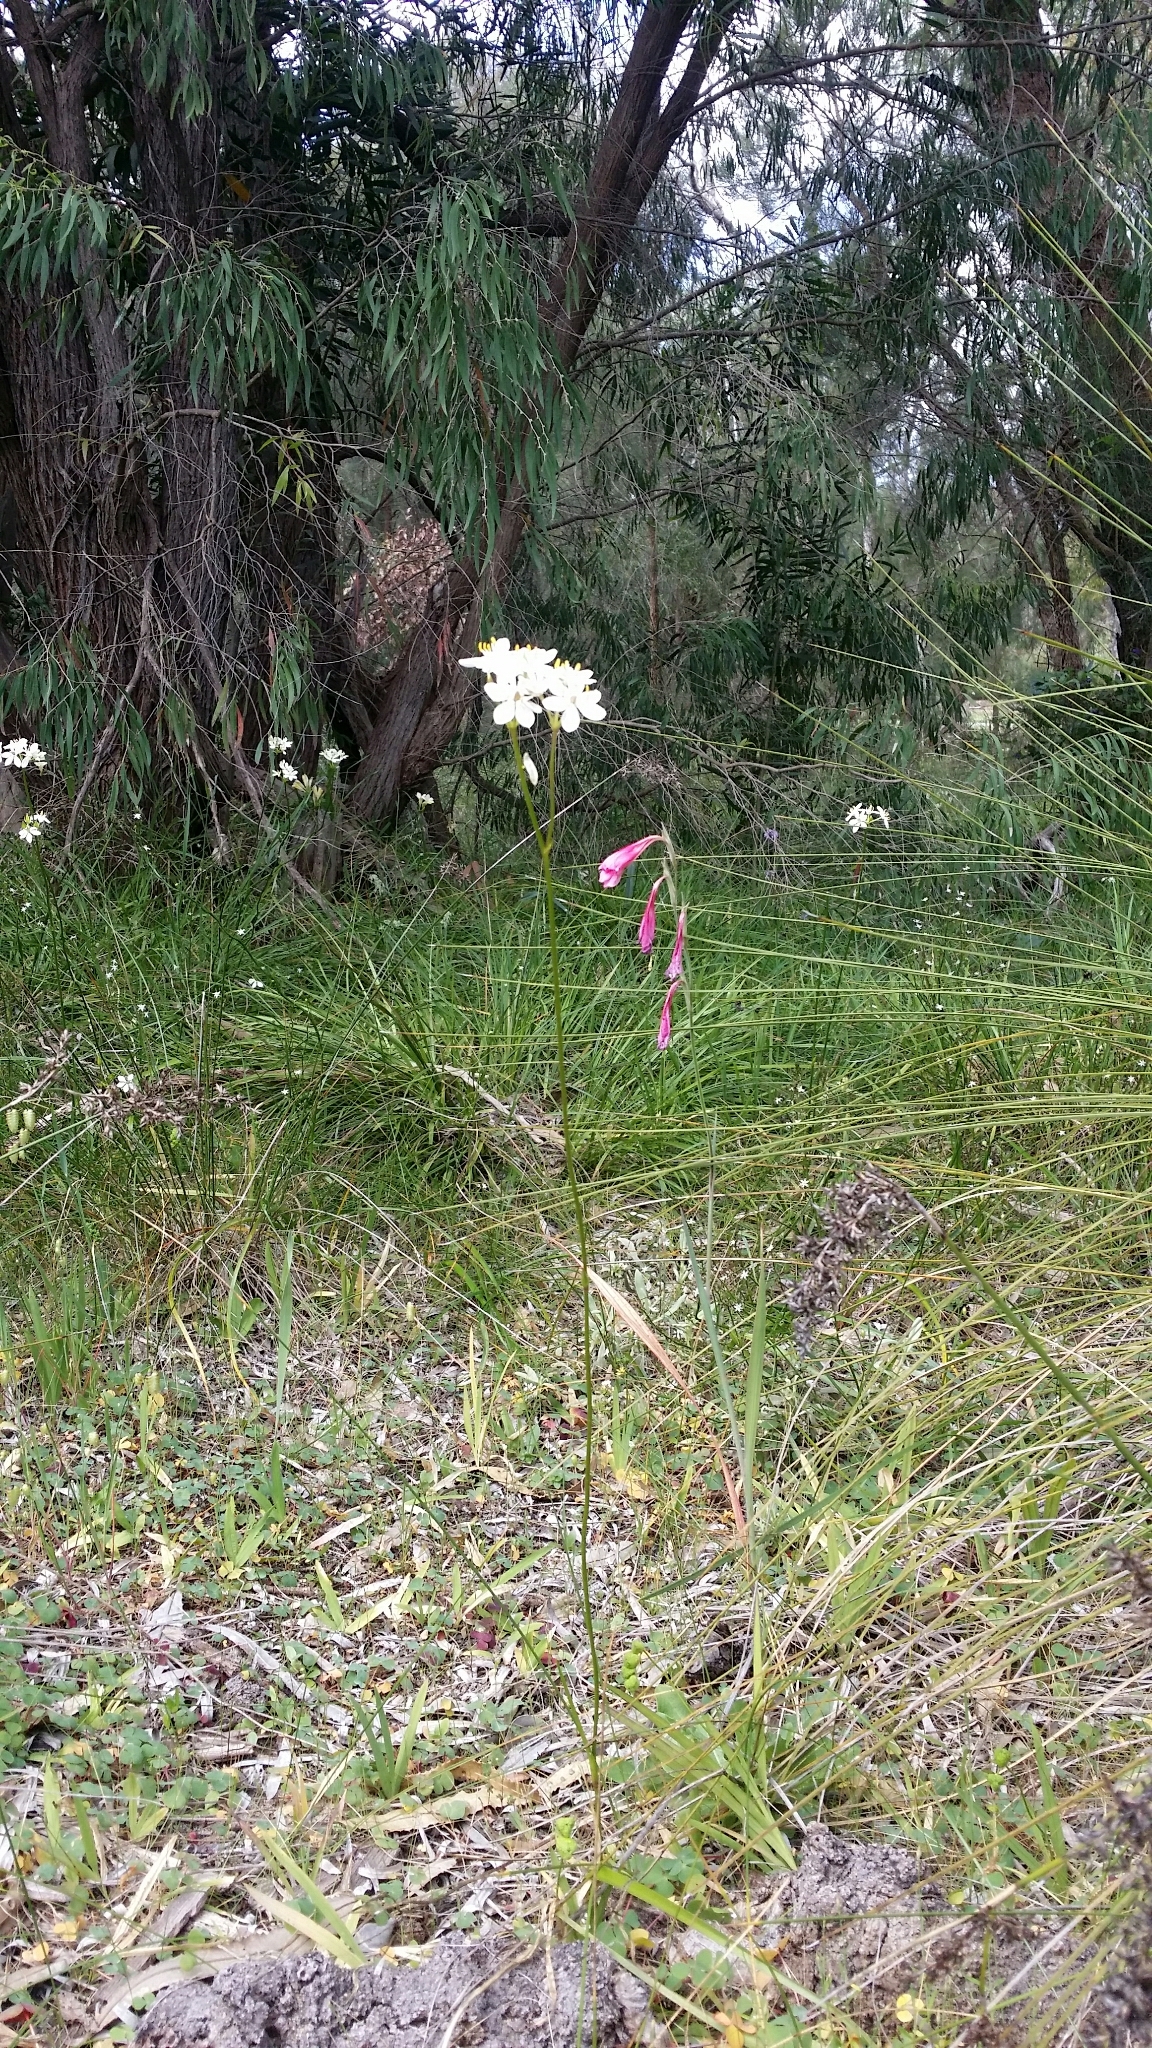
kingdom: Plantae
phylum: Tracheophyta
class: Liliopsida
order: Liliales
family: Colchicaceae
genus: Burchardia
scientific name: Burchardia congesta
